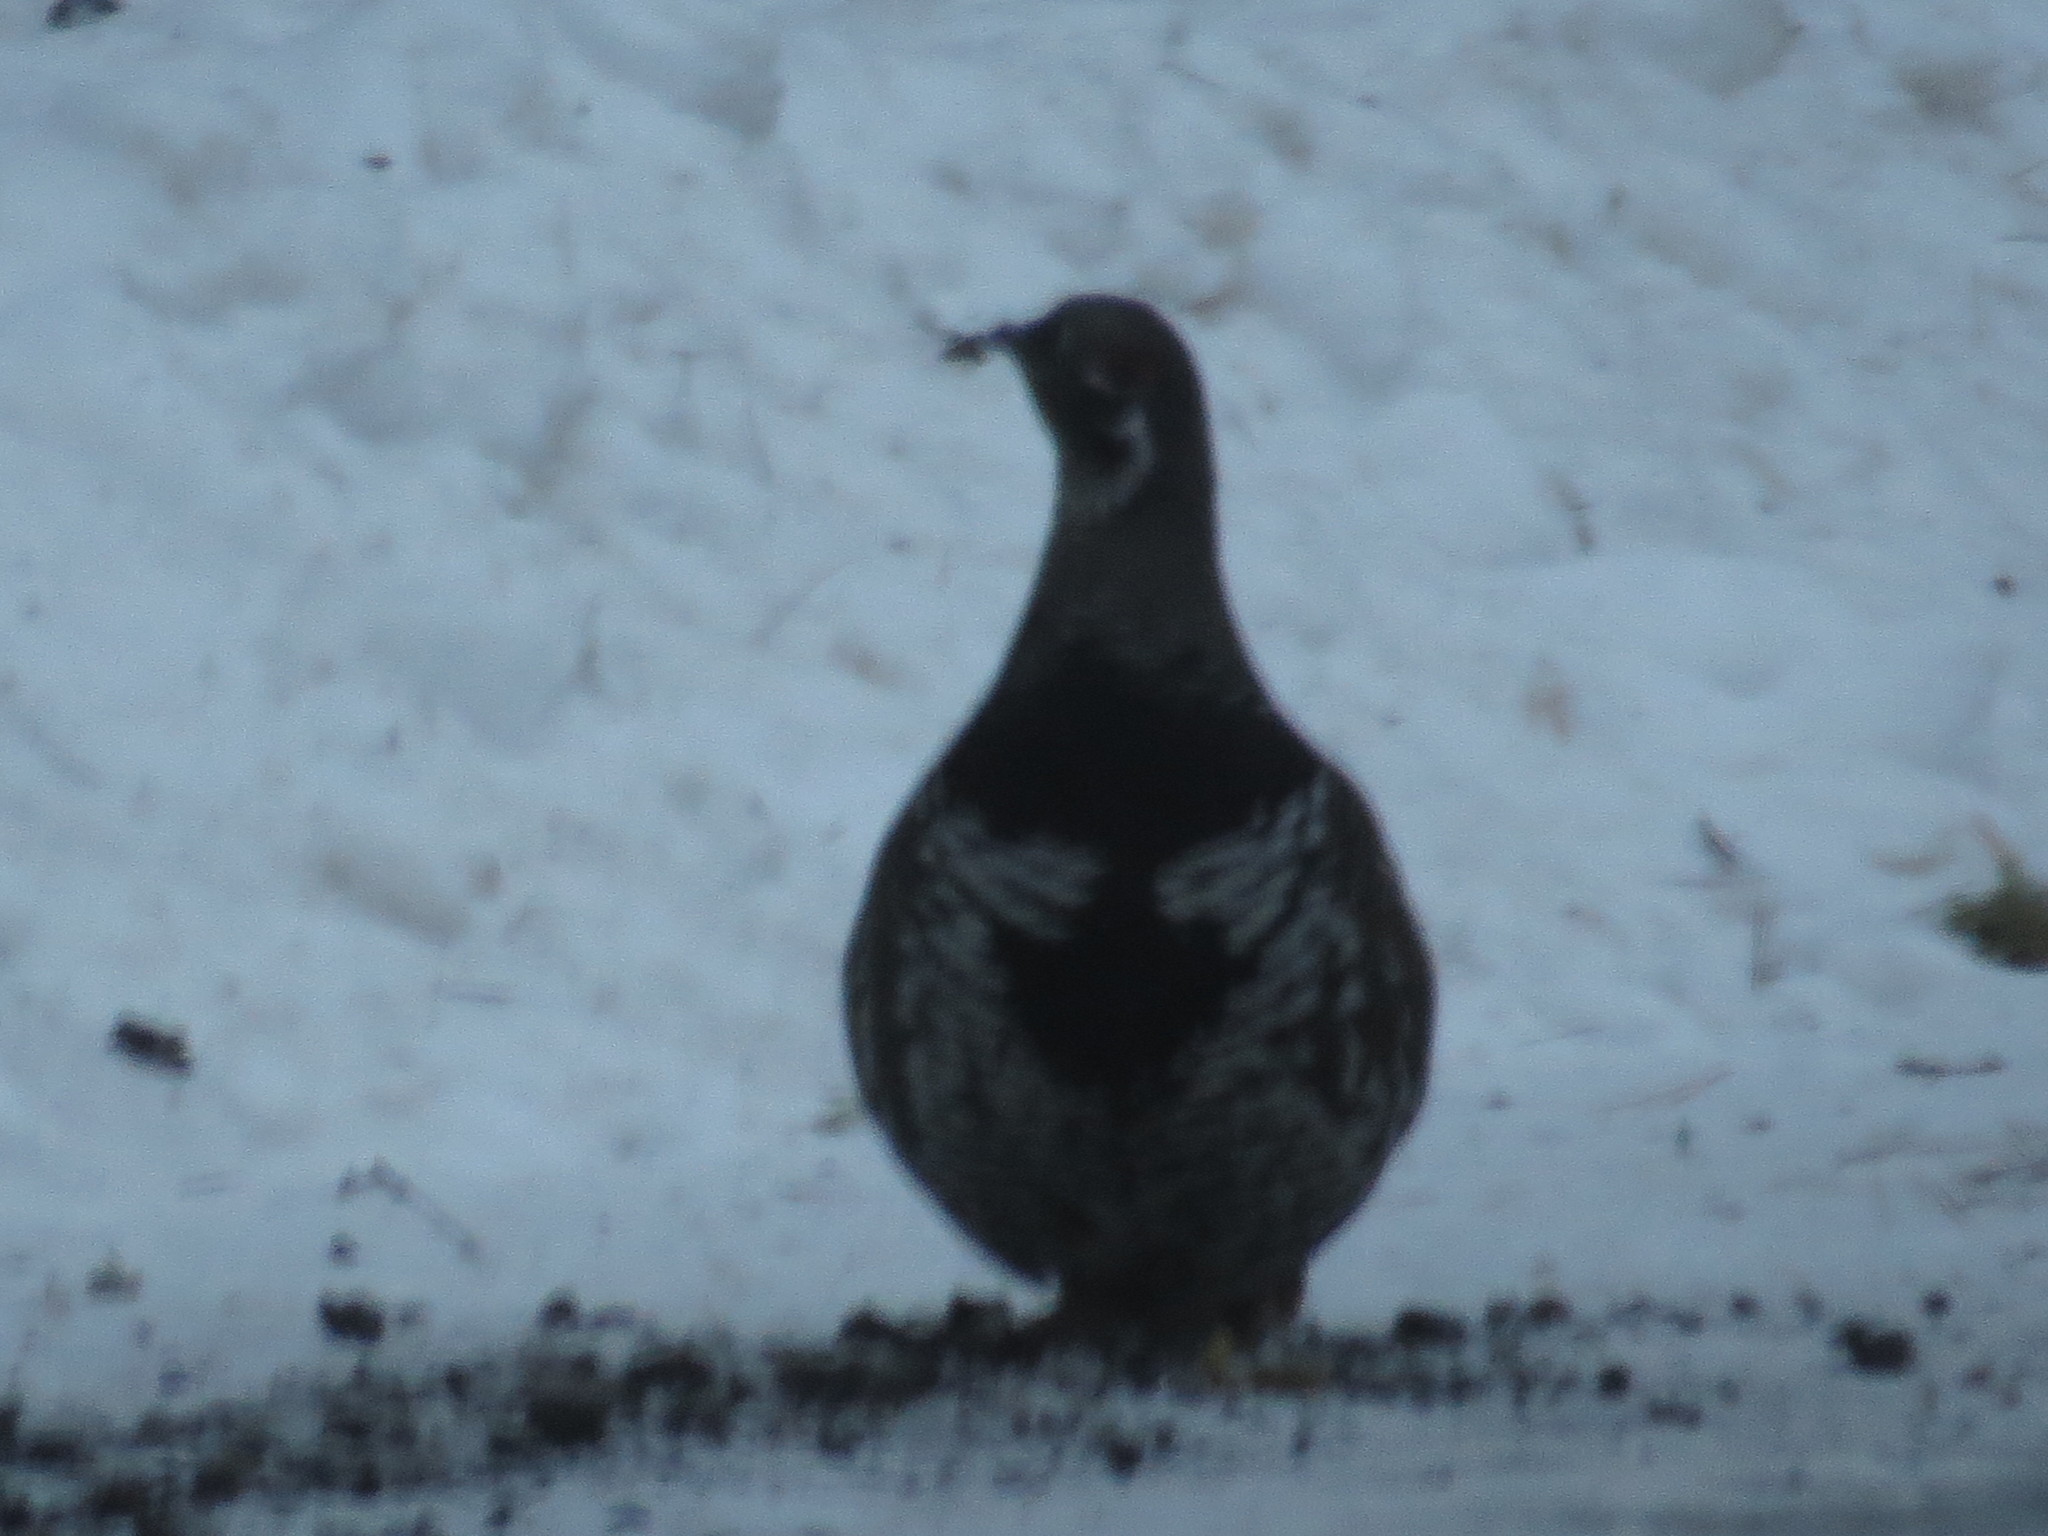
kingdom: Animalia
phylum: Chordata
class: Aves
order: Galliformes
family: Phasianidae
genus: Canachites
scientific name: Canachites canadensis
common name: Spruce grouse
